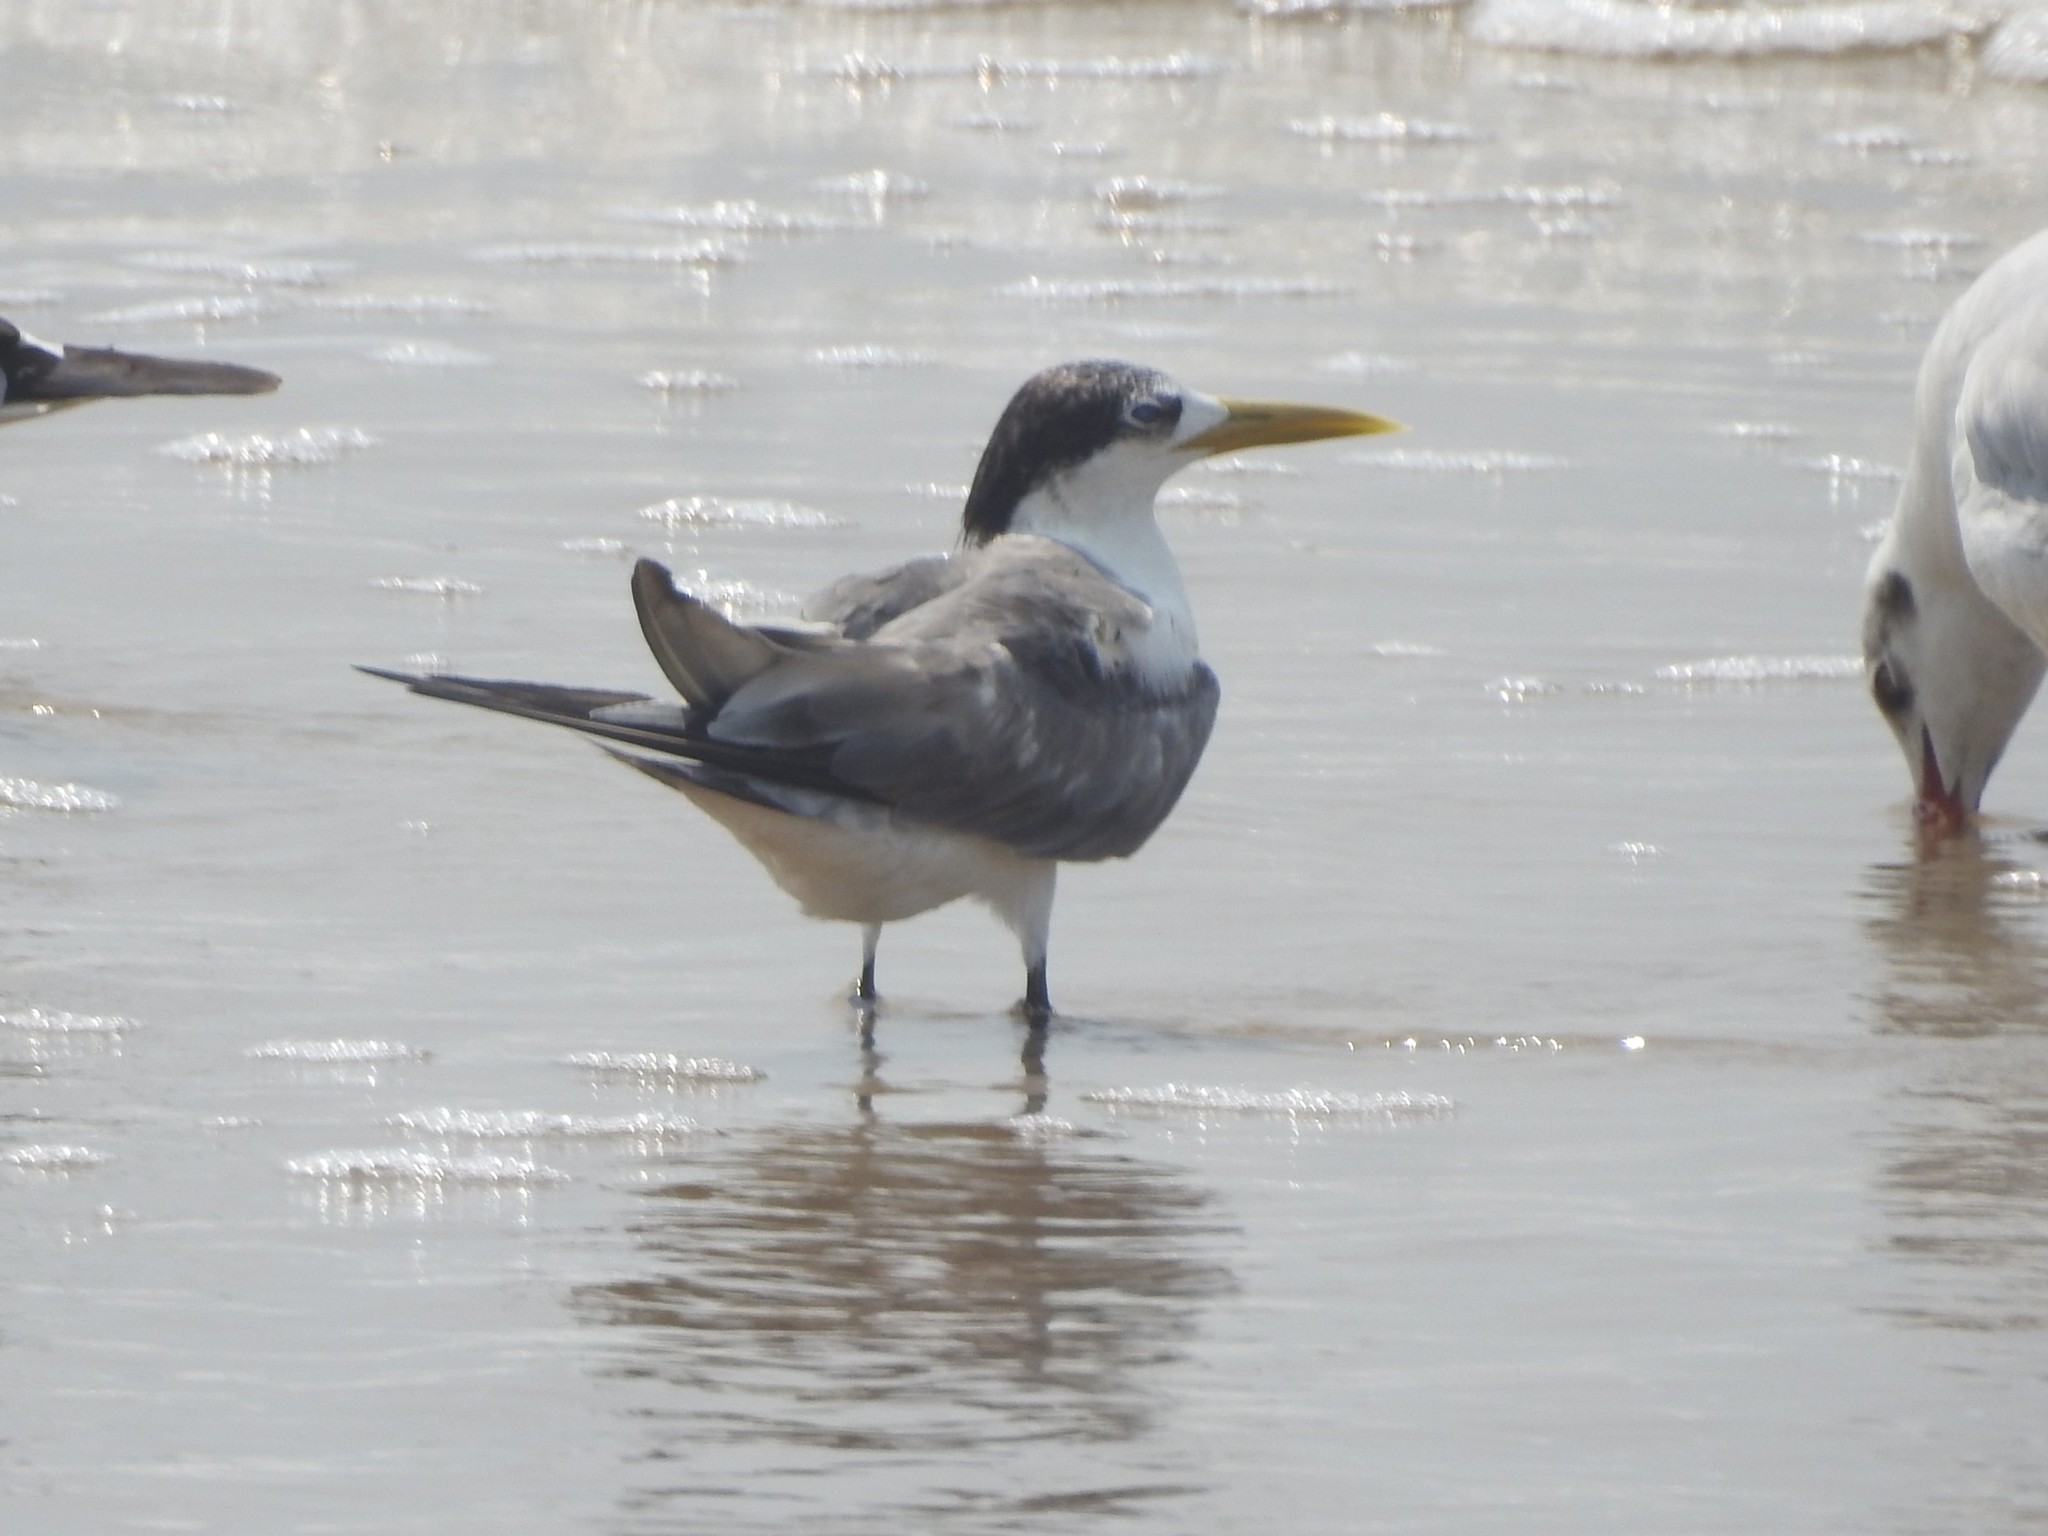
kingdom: Animalia
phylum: Chordata
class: Aves
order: Charadriiformes
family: Laridae
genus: Thalasseus
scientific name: Thalasseus bergii
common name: Greater crested tern
